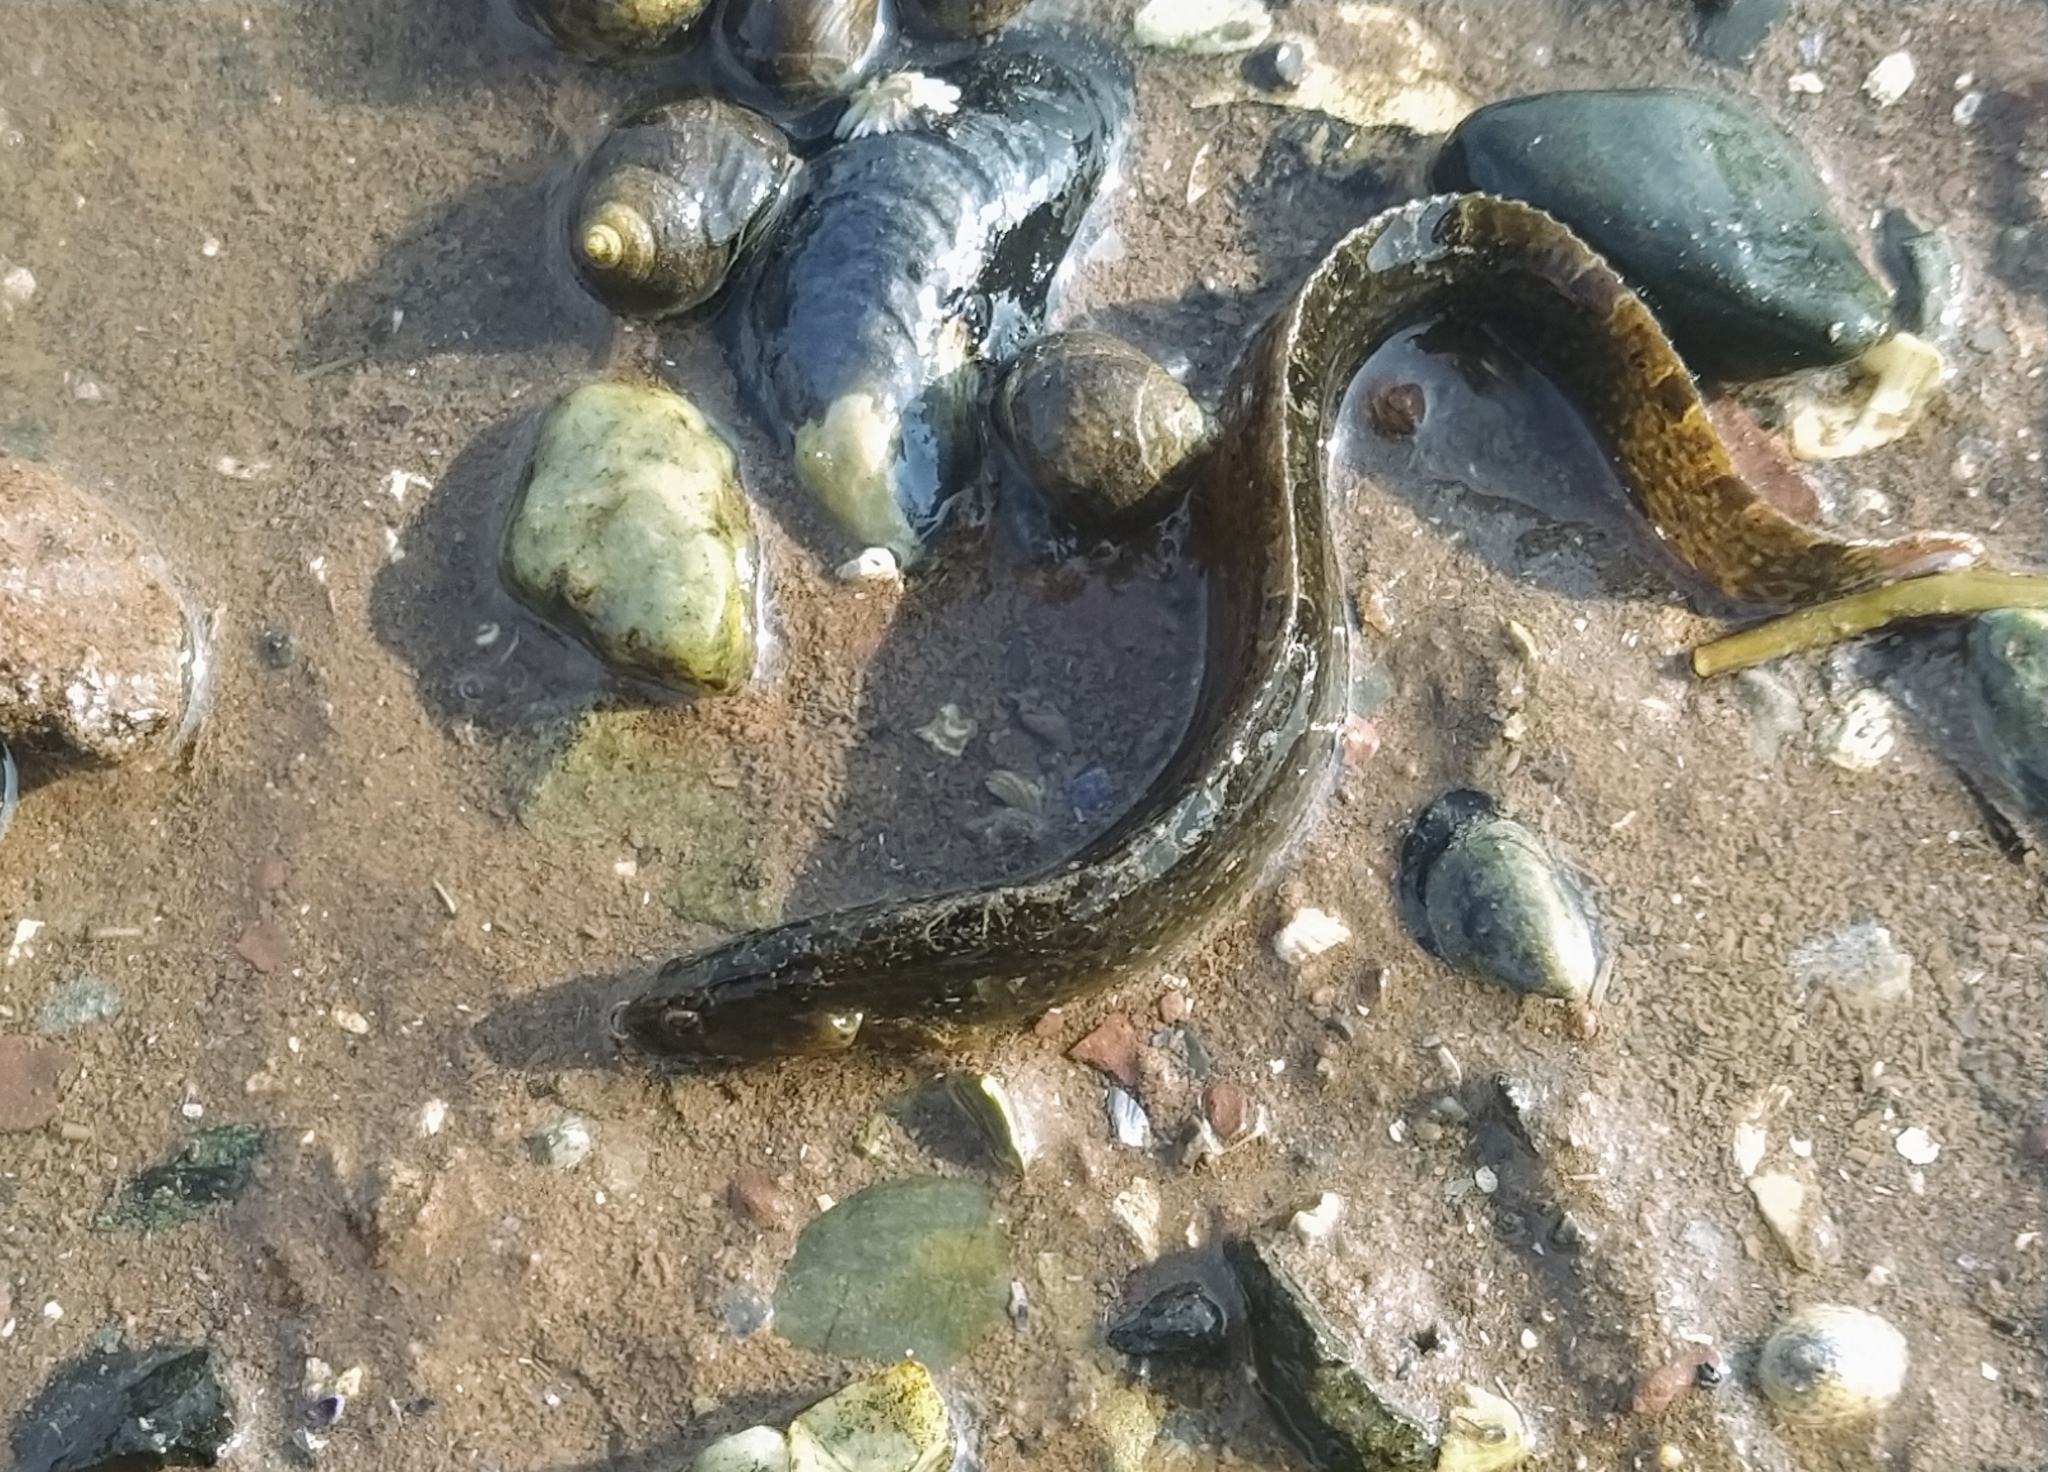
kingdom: Animalia
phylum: Chordata
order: Perciformes
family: Pholidae
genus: Pholis
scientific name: Pholis gunnellus
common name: Butterfish
